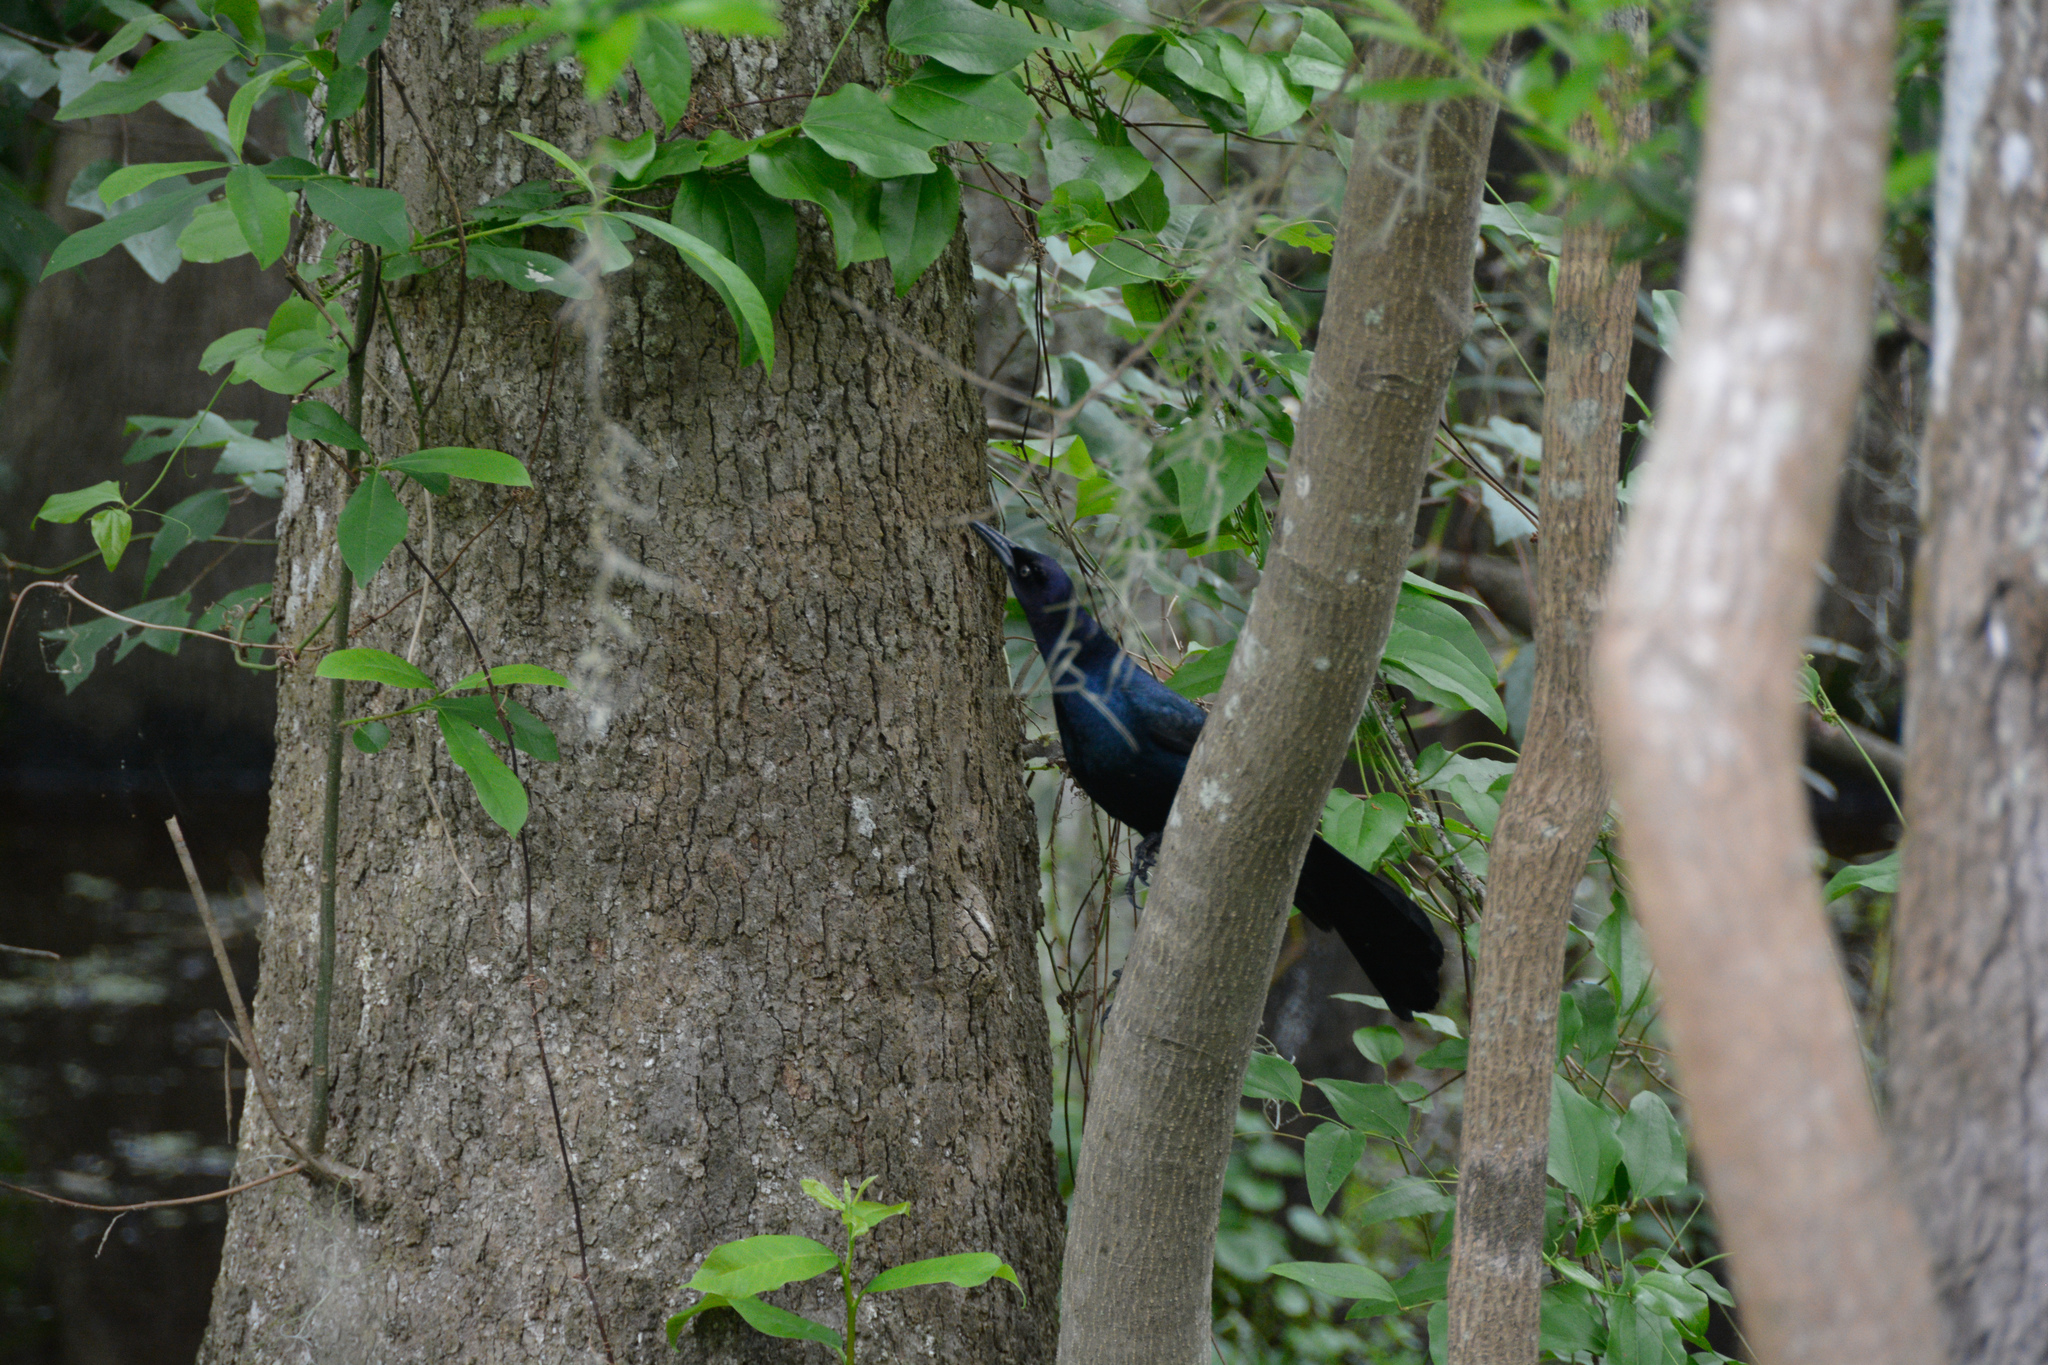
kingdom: Animalia
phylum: Chordata
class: Aves
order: Passeriformes
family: Icteridae
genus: Quiscalus
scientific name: Quiscalus major
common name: Boat-tailed grackle
